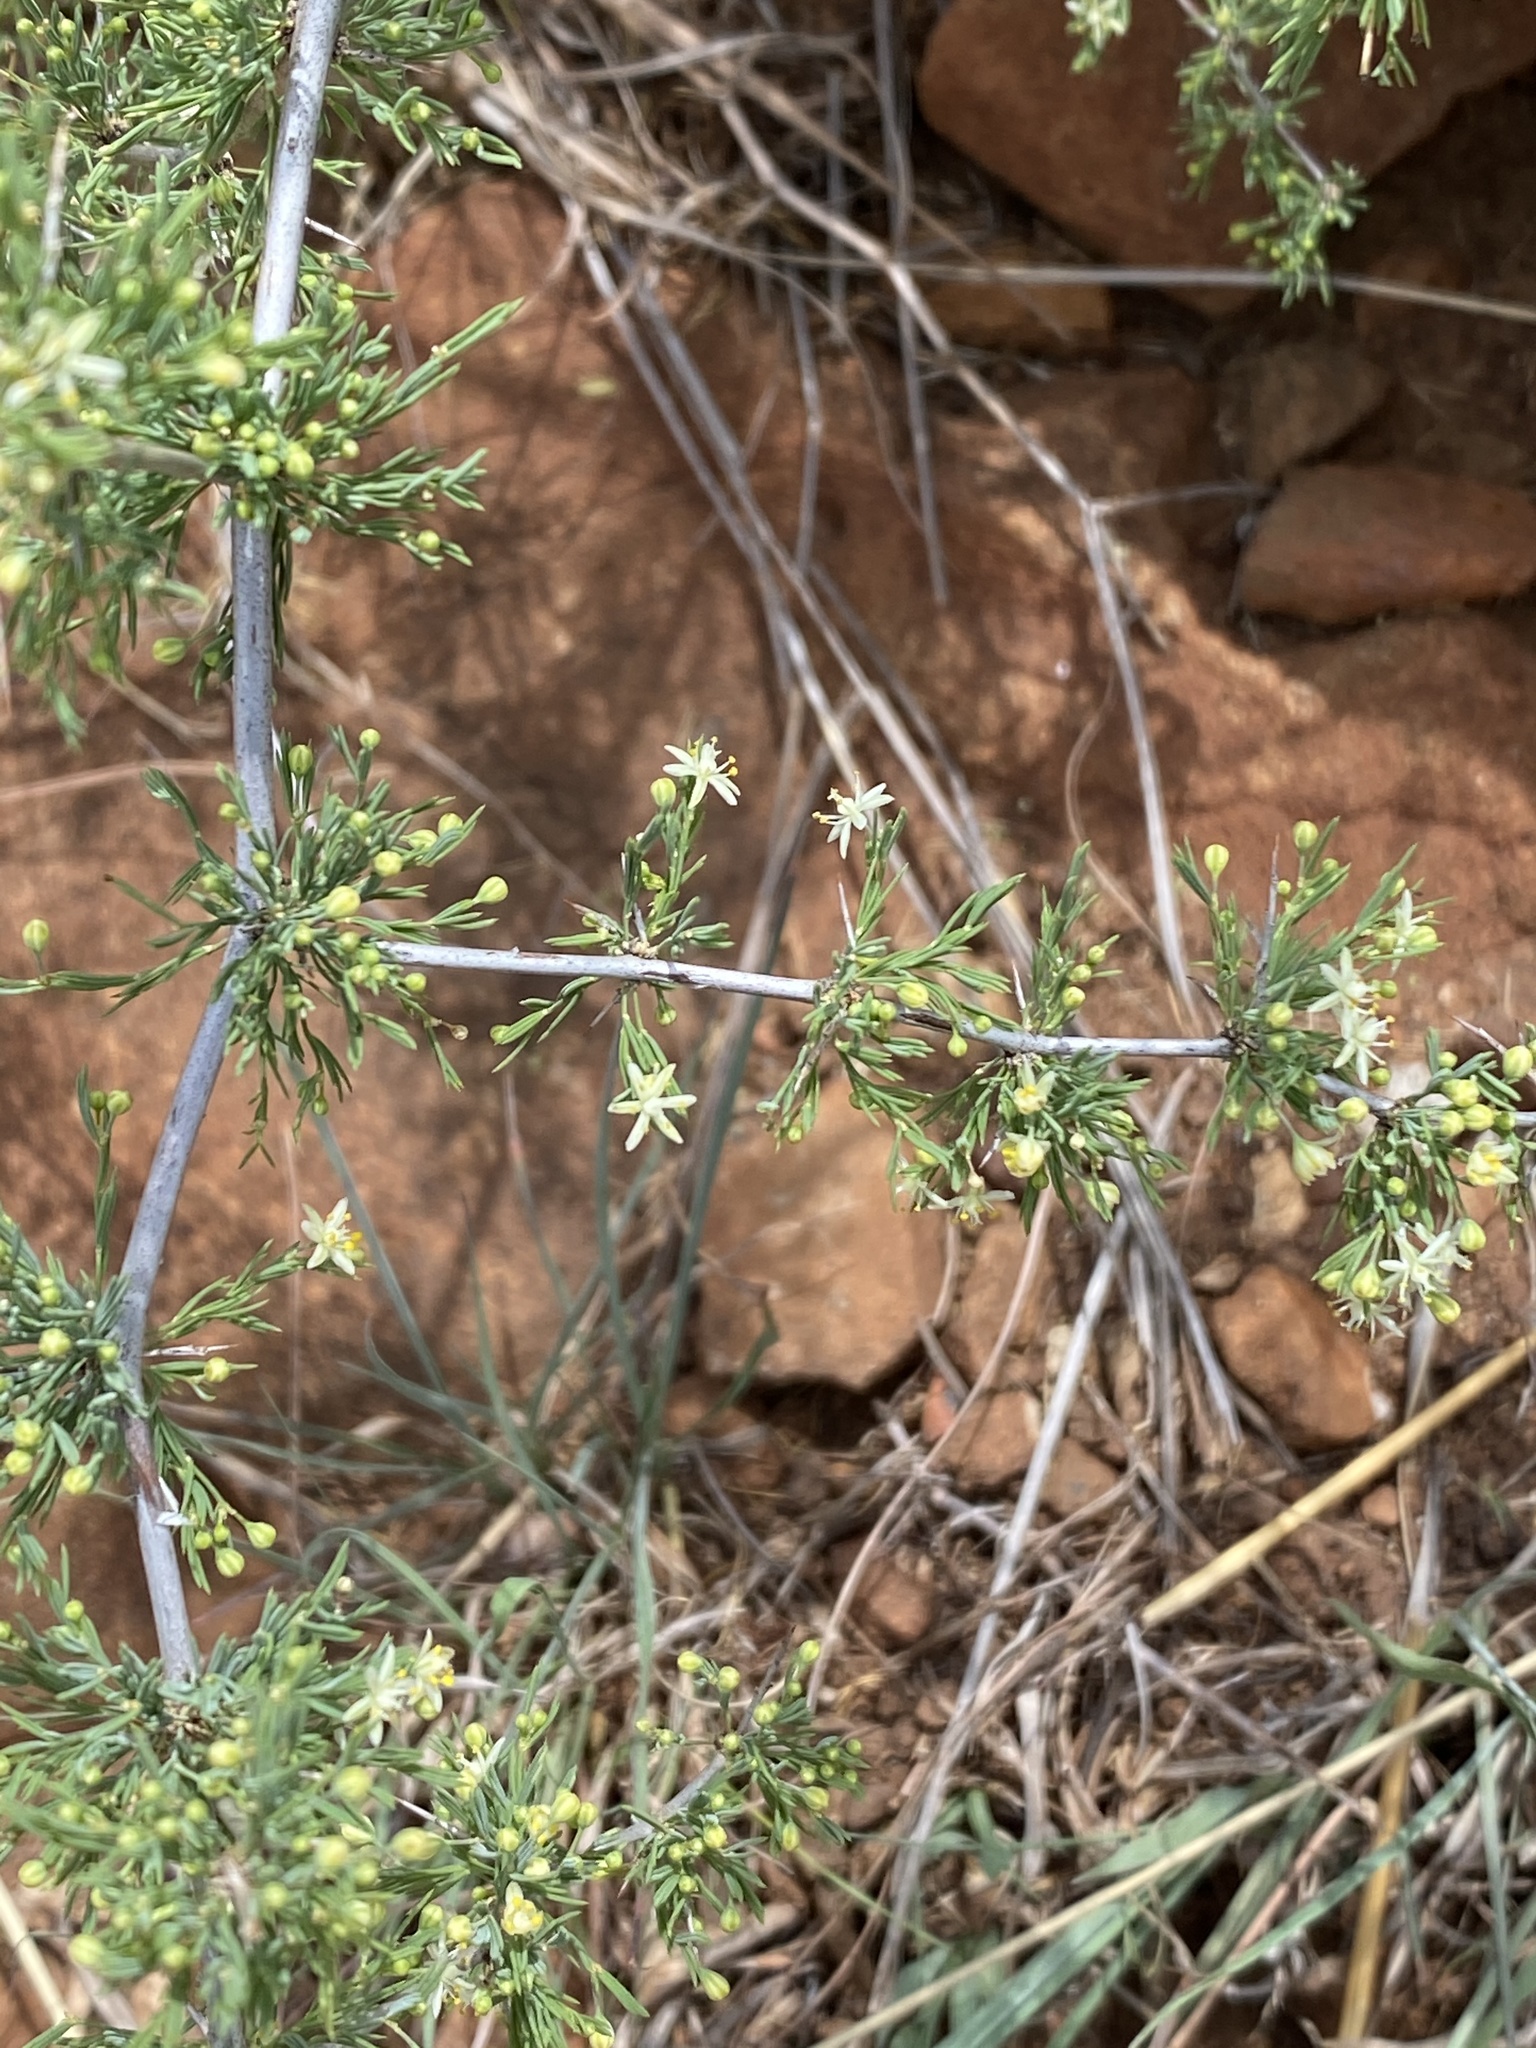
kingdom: Plantae
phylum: Tracheophyta
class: Liliopsida
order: Asparagales
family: Asparagaceae
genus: Asparagus
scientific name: Asparagus spinescens
